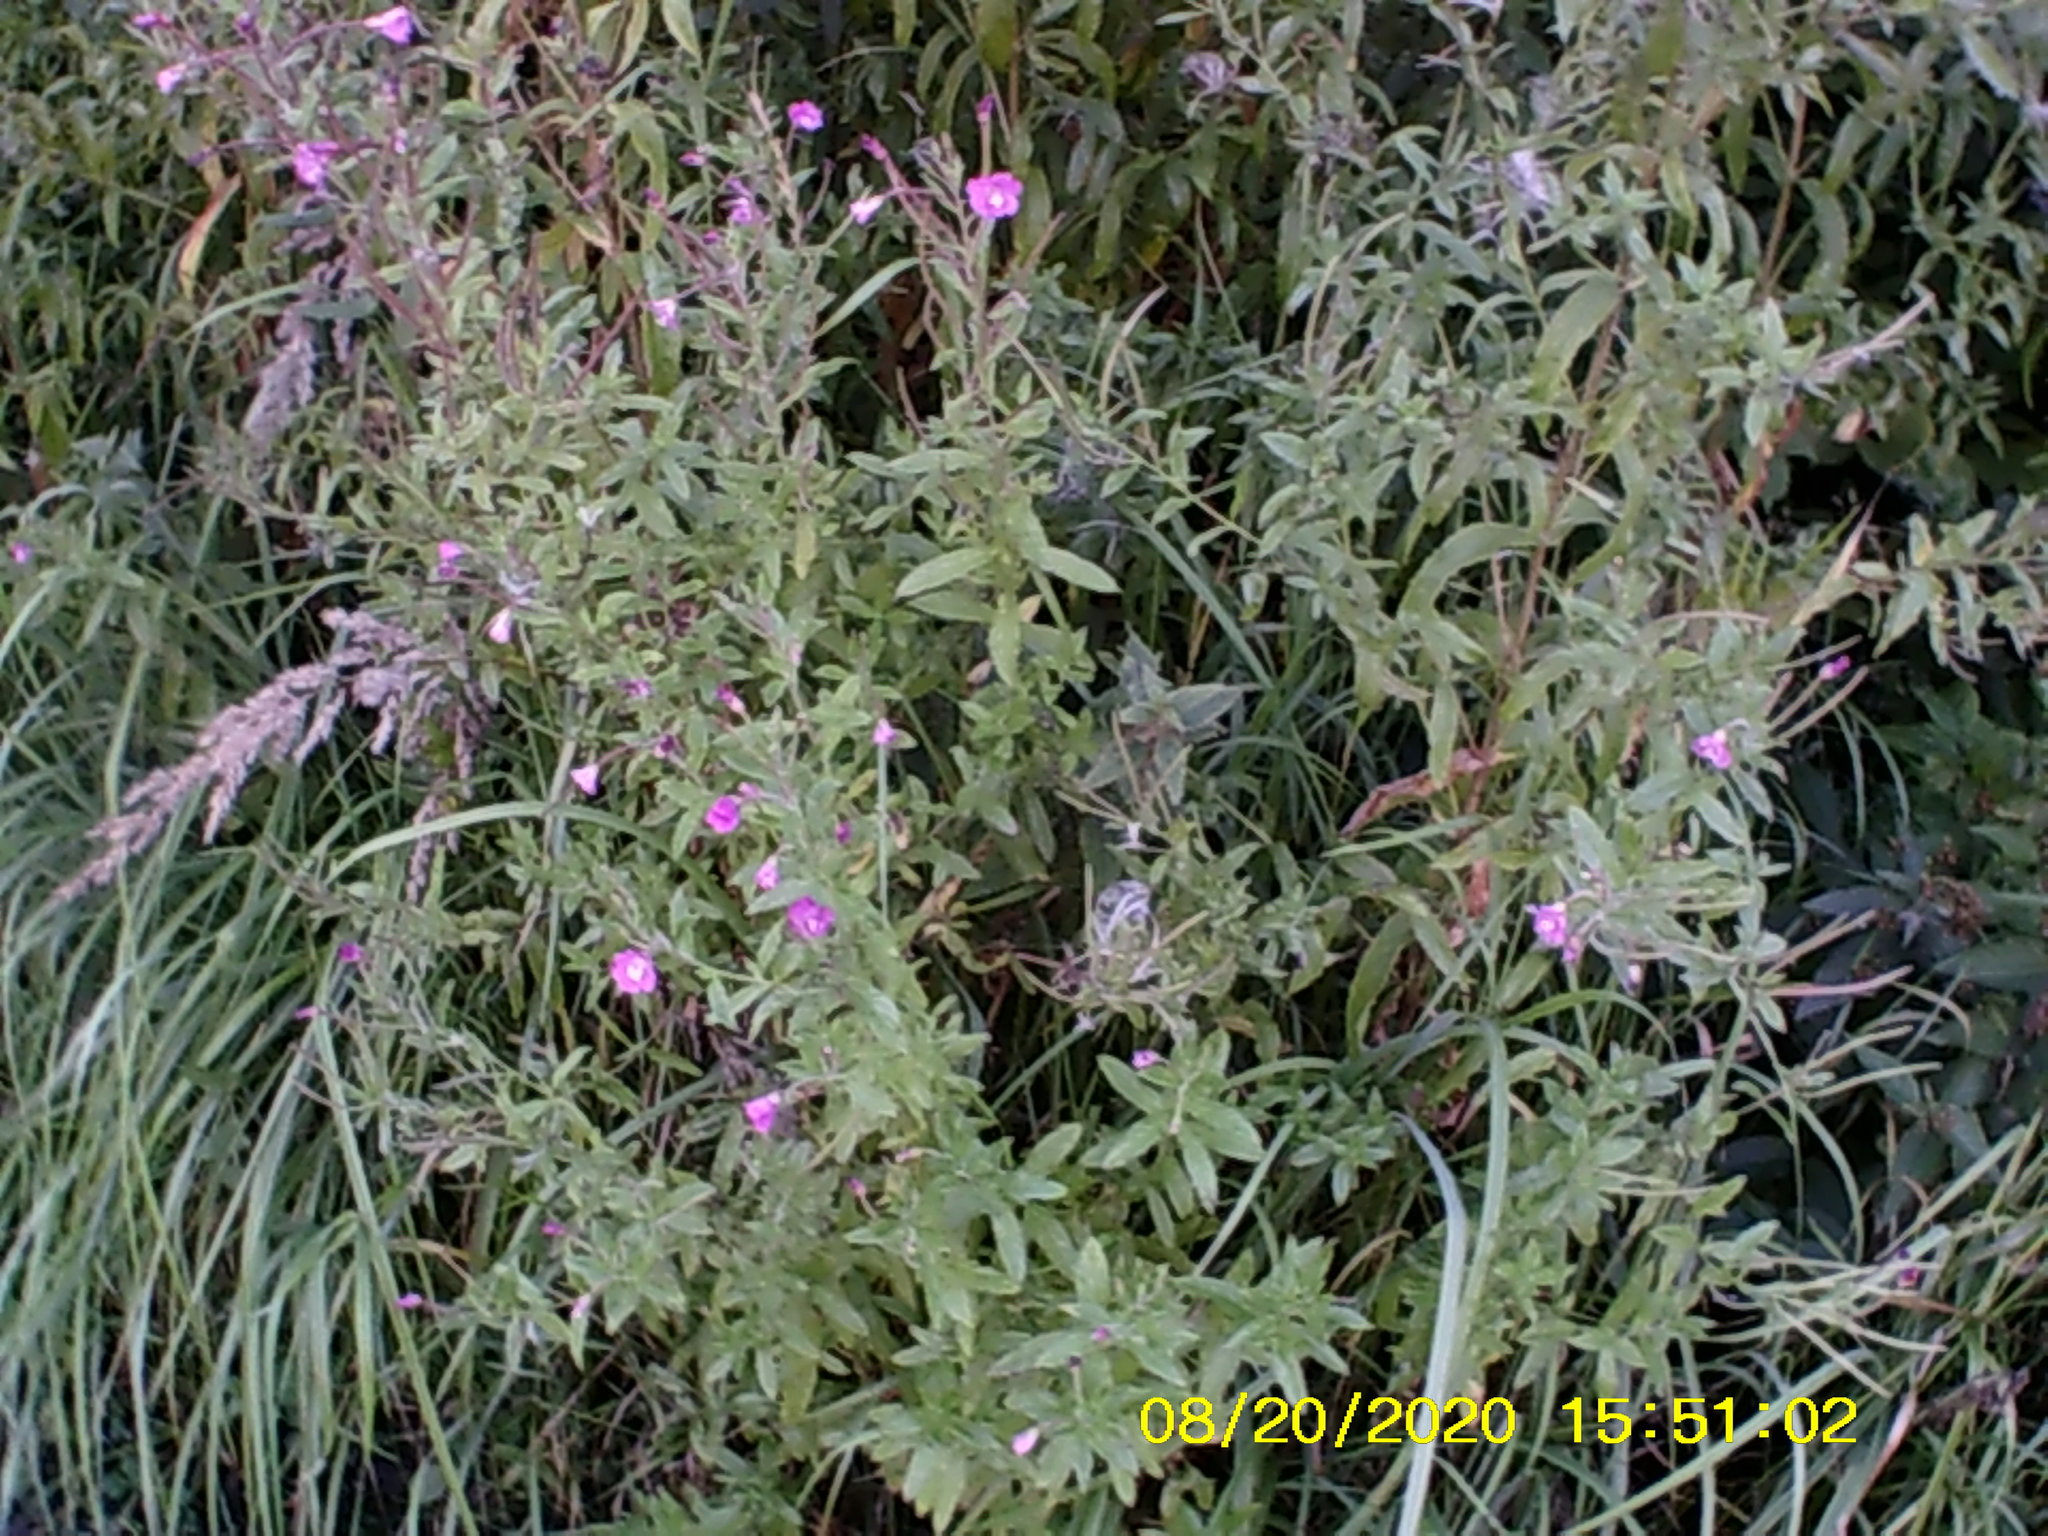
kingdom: Plantae
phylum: Tracheophyta
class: Magnoliopsida
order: Myrtales
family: Onagraceae
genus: Epilobium
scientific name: Epilobium hirsutum
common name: Great willowherb
